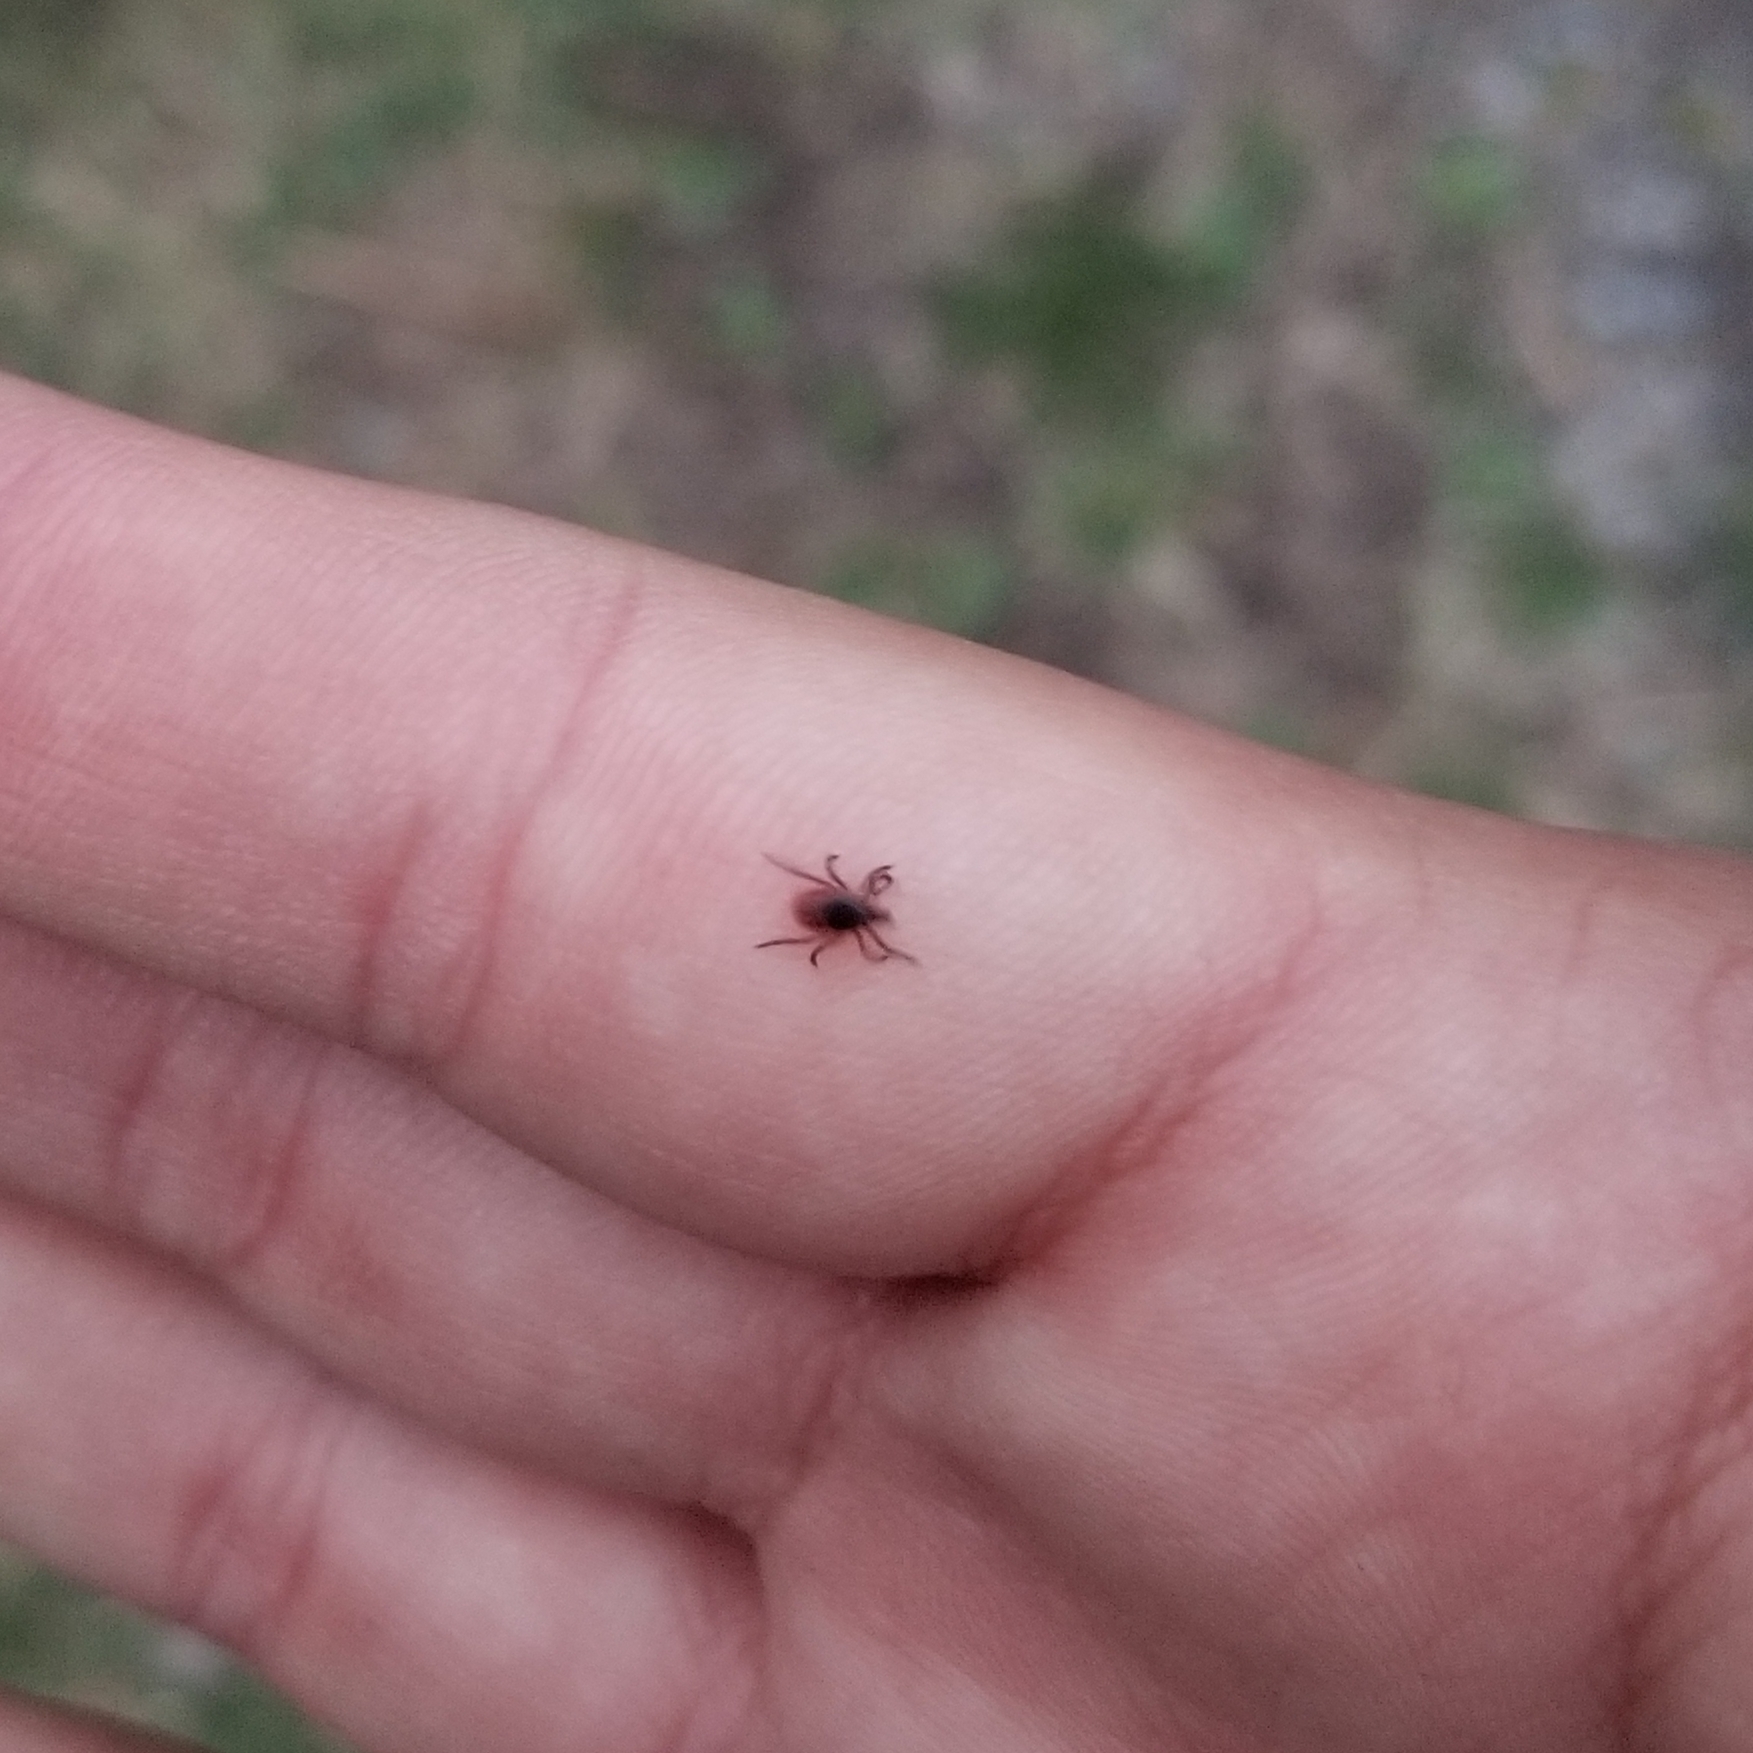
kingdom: Animalia
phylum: Arthropoda
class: Arachnida
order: Ixodida
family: Ixodidae
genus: Ixodes
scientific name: Ixodes scapularis
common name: Black legged tick
